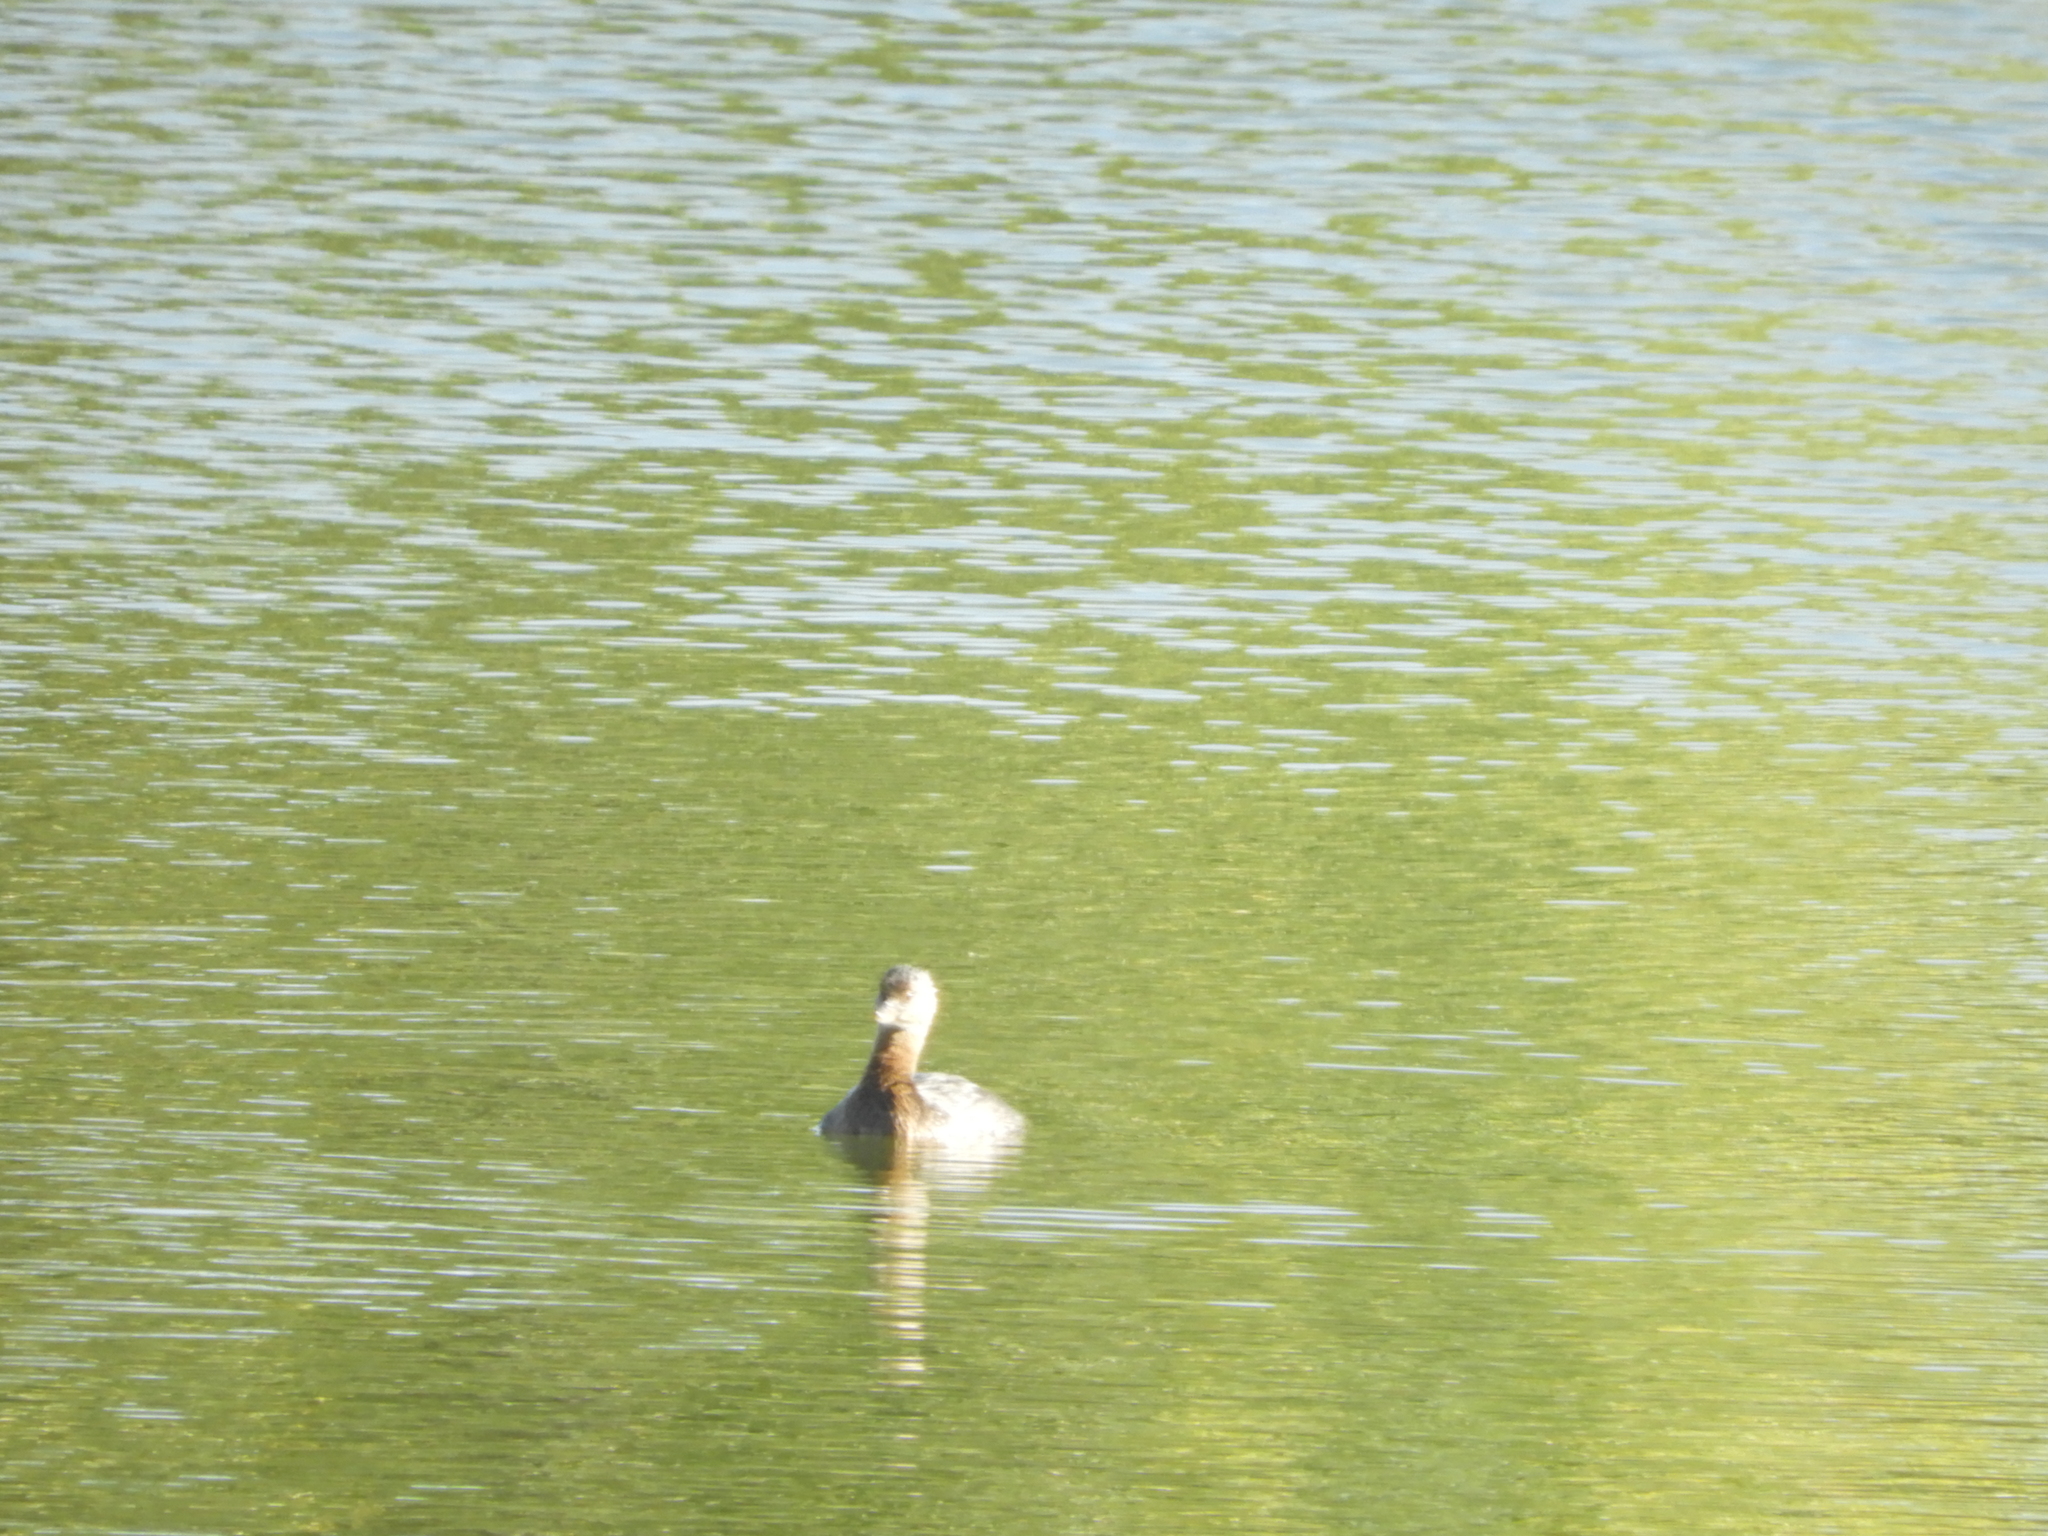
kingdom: Animalia
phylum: Chordata
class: Aves
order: Podicipediformes
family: Podicipedidae
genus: Podilymbus
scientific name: Podilymbus podiceps
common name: Pied-billed grebe
